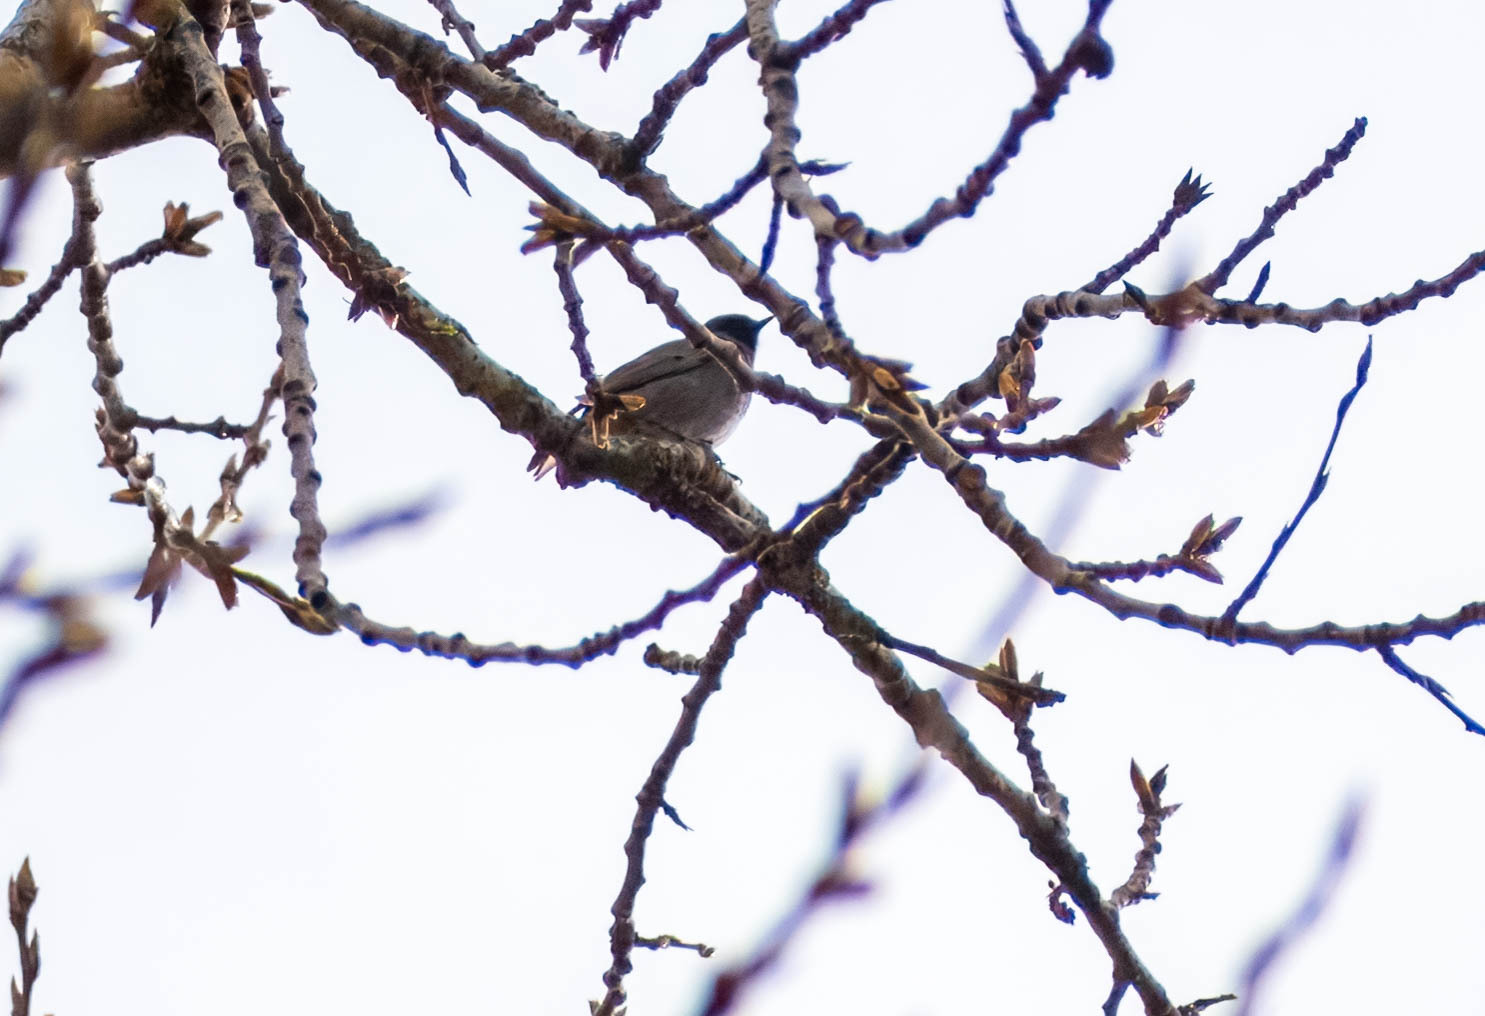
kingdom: Animalia
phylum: Chordata
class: Aves
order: Passeriformes
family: Muscicapidae
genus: Phoenicurus
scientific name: Phoenicurus ochruros
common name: Black redstart
